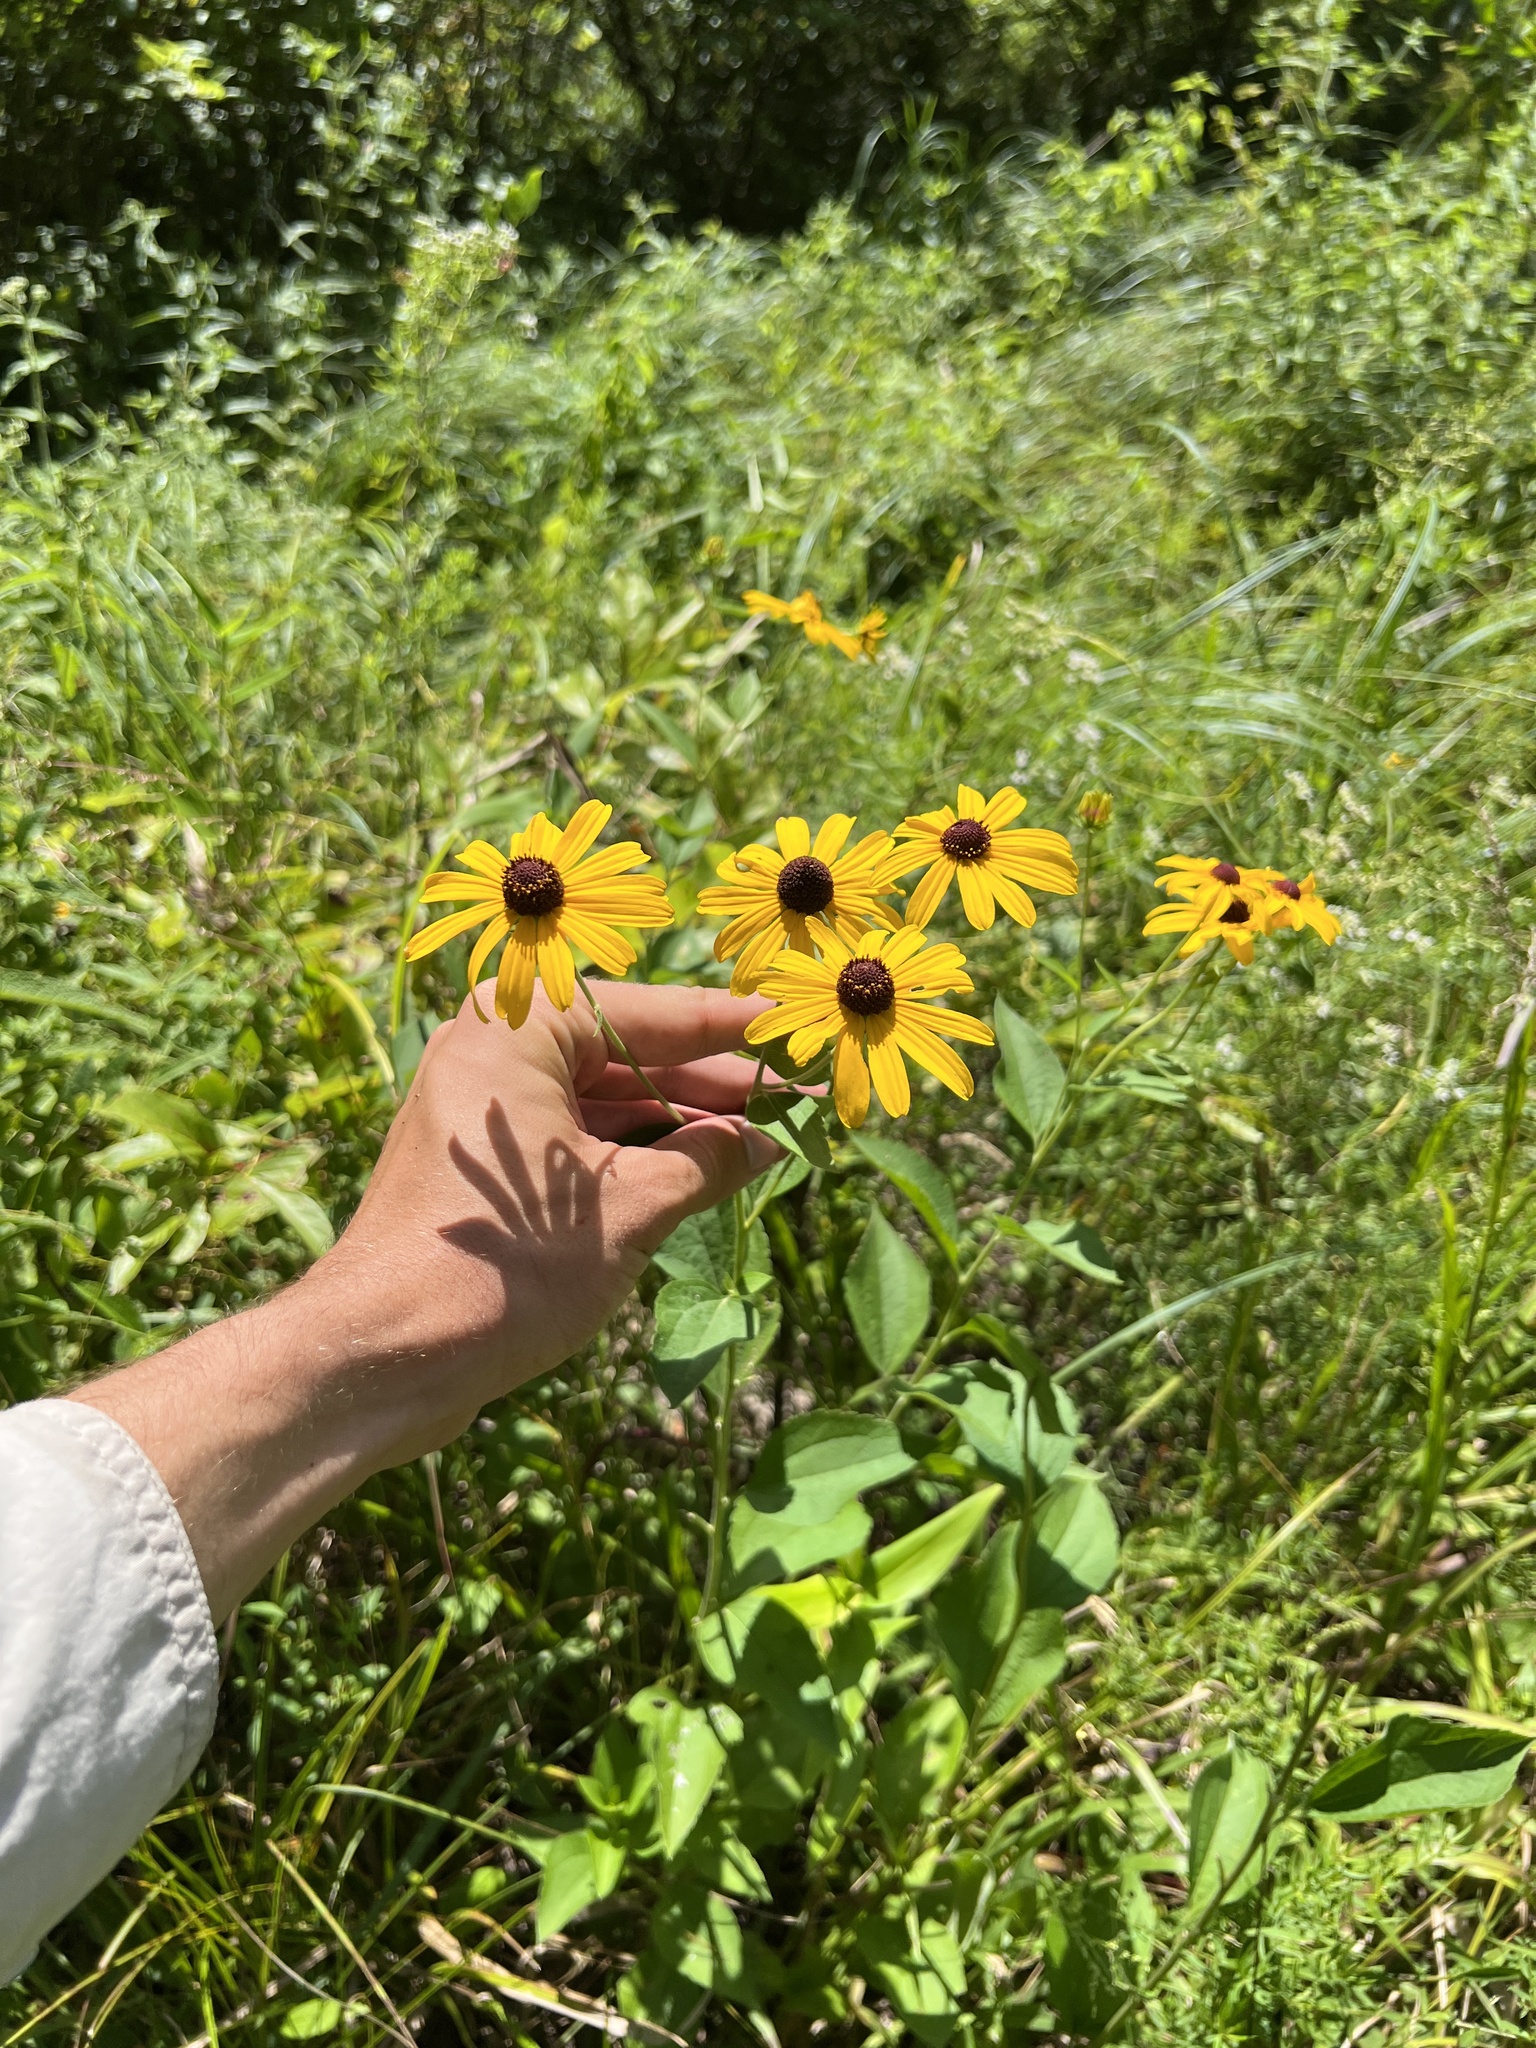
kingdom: Plantae
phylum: Tracheophyta
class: Magnoliopsida
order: Asterales
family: Asteraceae
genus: Rudbeckia
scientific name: Rudbeckia subtomentosa
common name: Sweet coneflower
